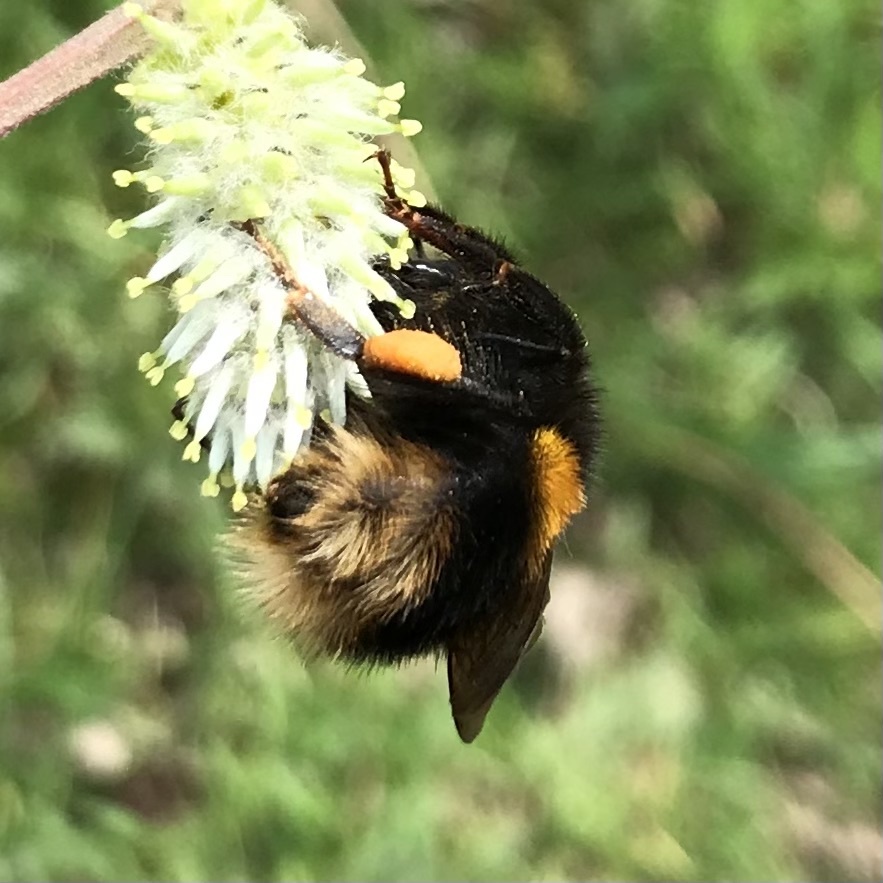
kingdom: Animalia
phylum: Arthropoda
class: Insecta
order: Hymenoptera
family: Apidae
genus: Bombus
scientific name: Bombus terrestris
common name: Buff-tailed bumblebee
